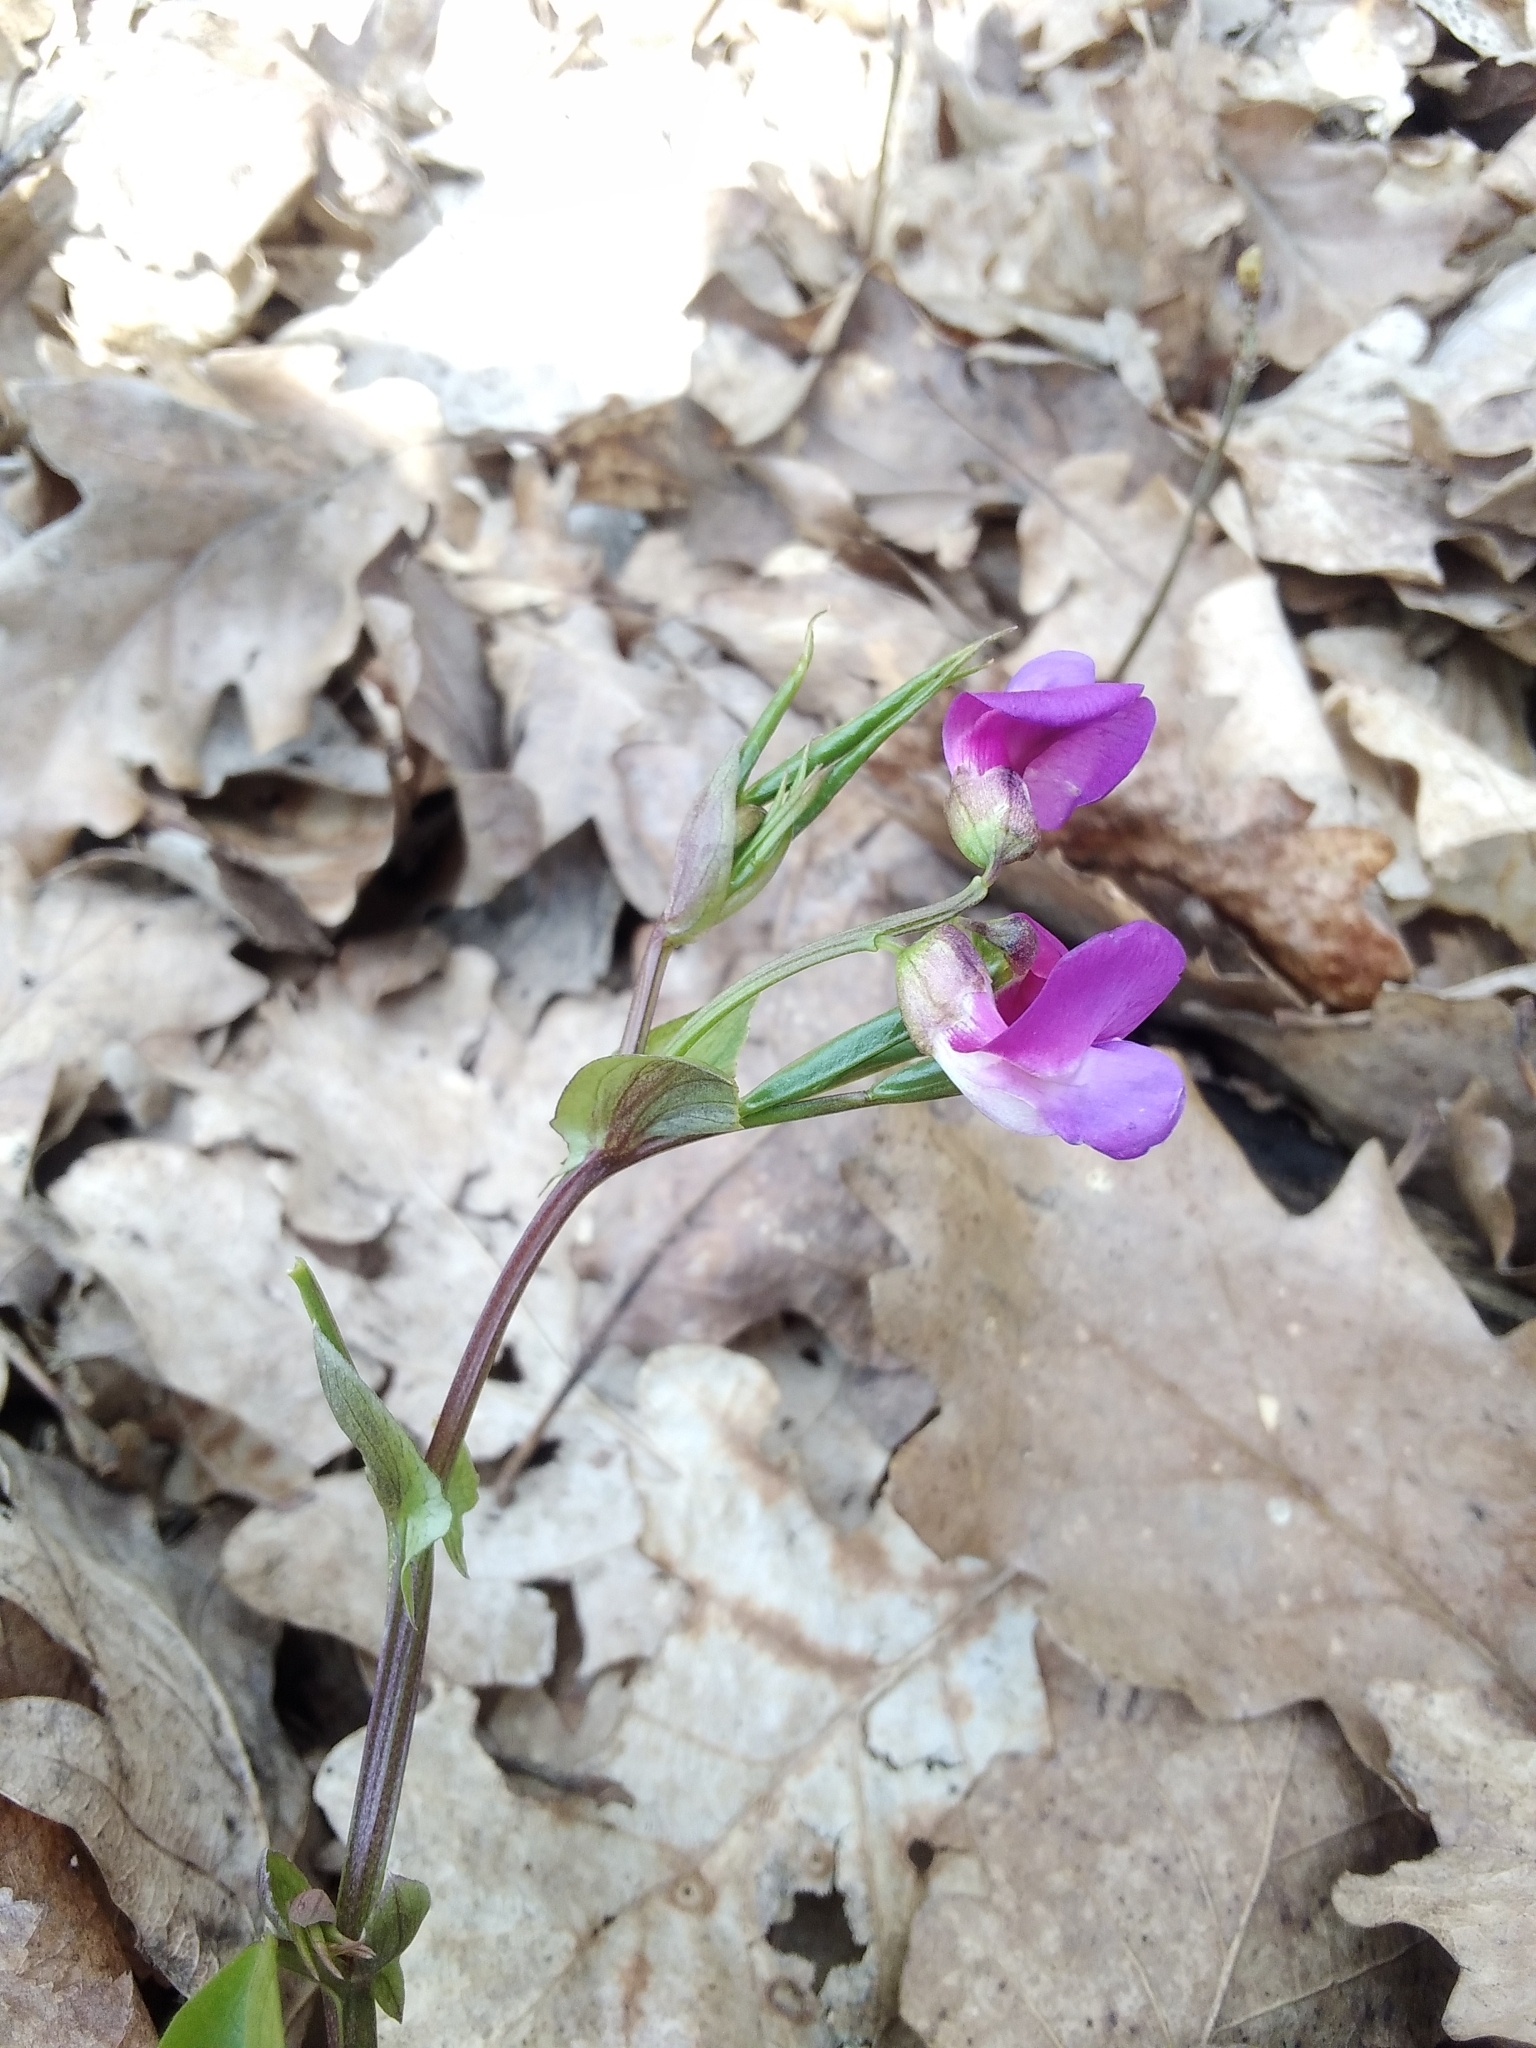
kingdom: Plantae
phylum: Tracheophyta
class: Magnoliopsida
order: Fabales
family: Fabaceae
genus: Lathyrus
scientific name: Lathyrus vernus
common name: Spring pea
